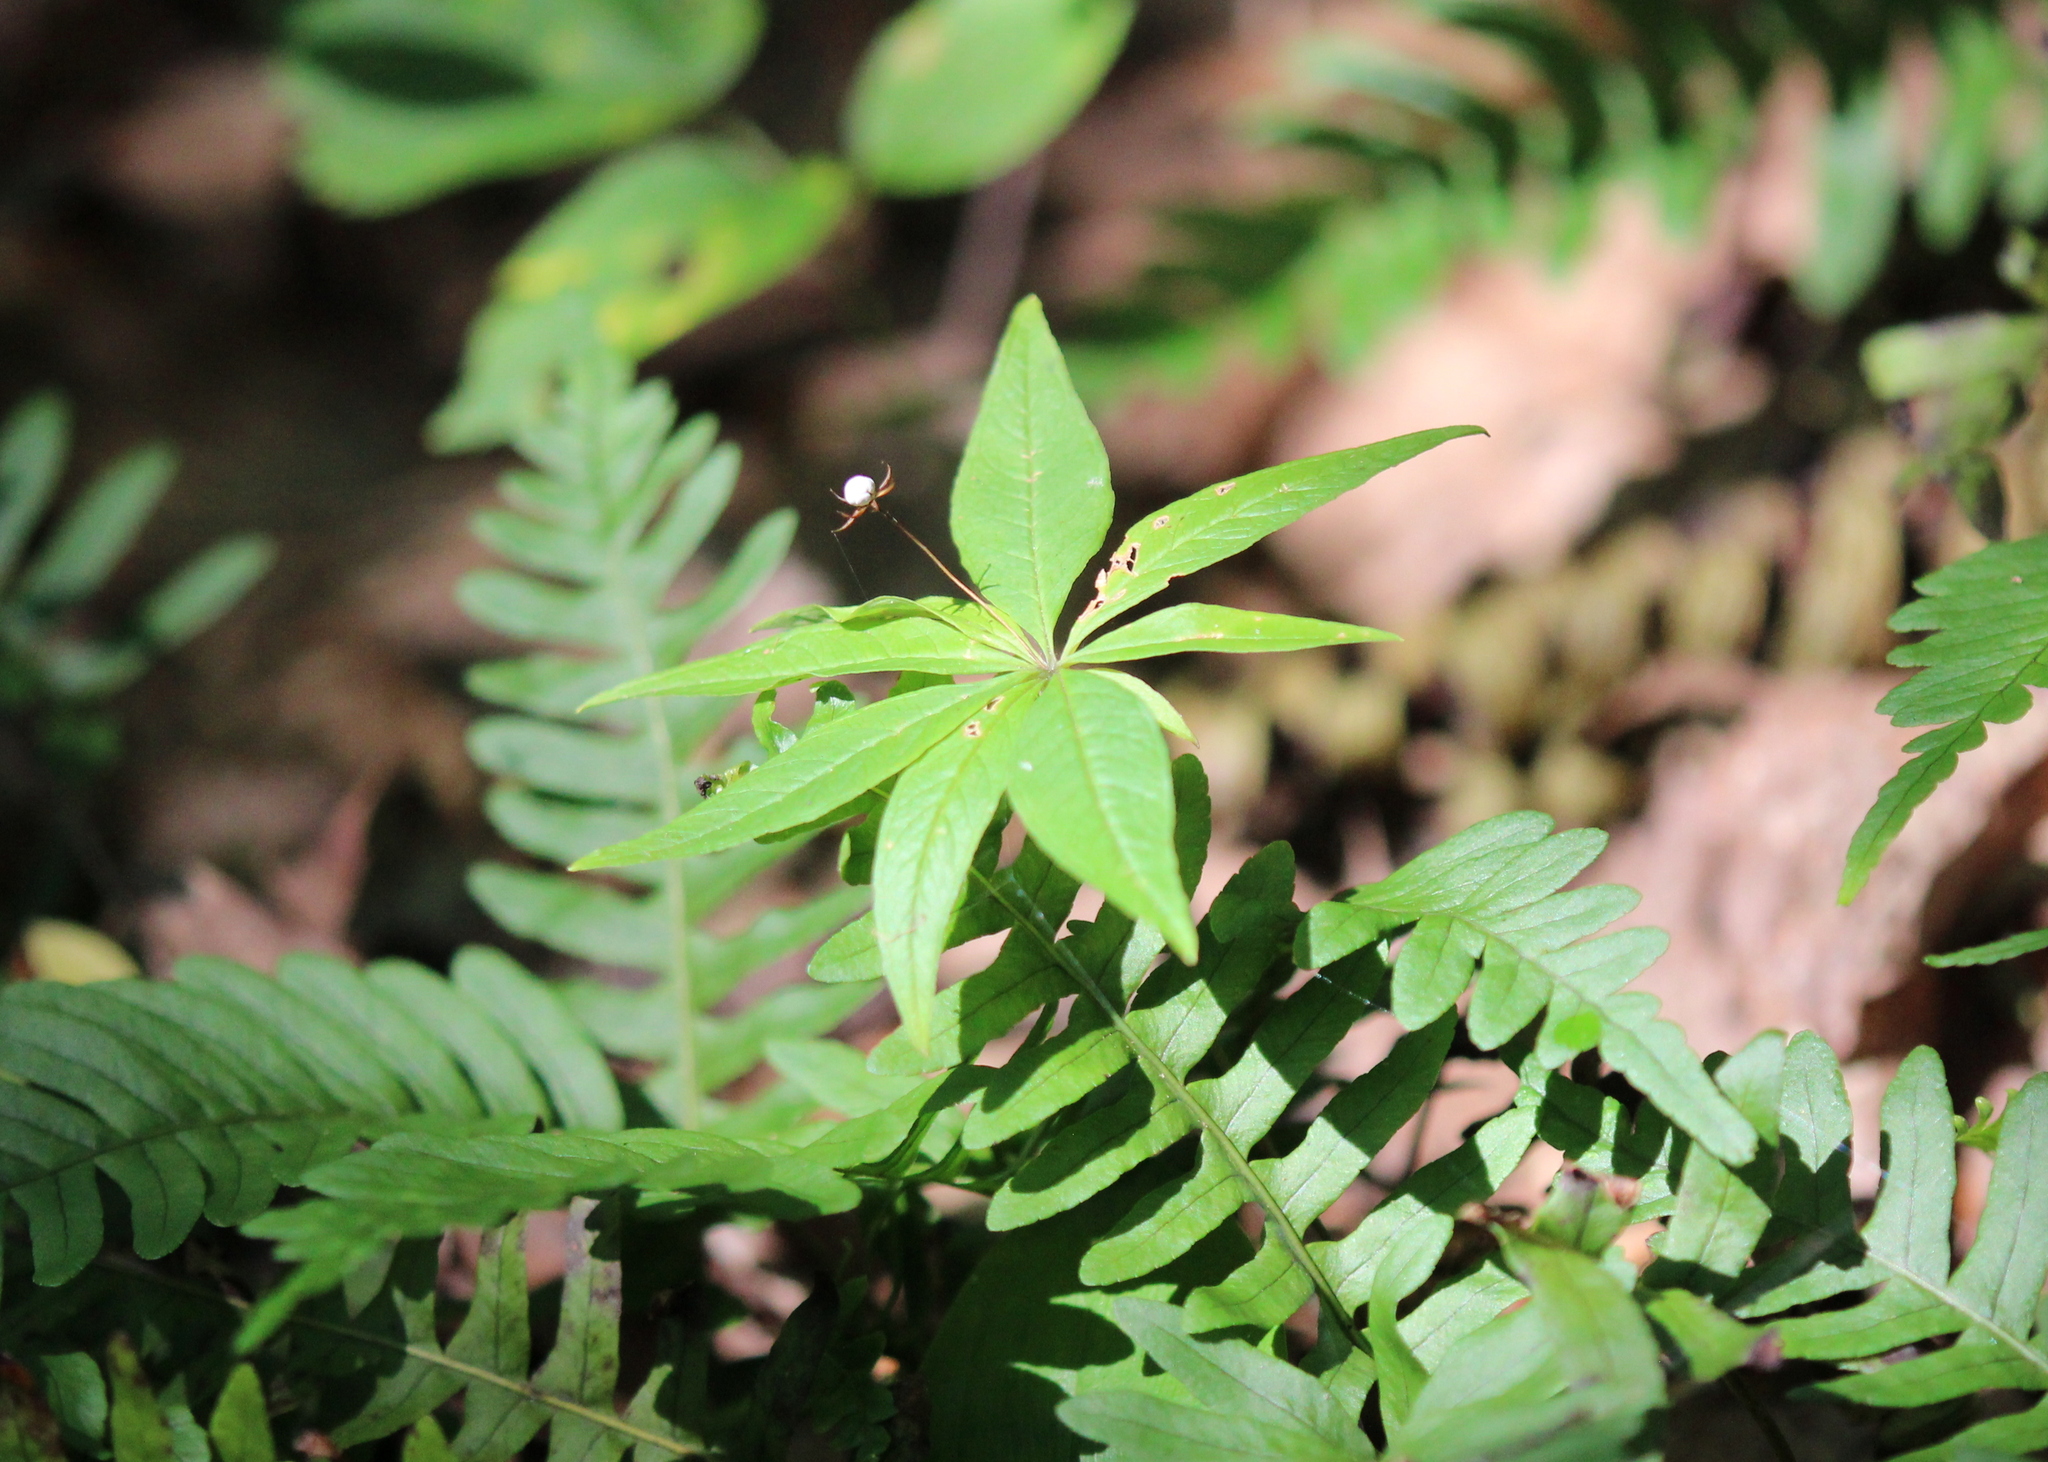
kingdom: Plantae
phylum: Tracheophyta
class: Magnoliopsida
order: Ericales
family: Primulaceae
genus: Lysimachia
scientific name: Lysimachia borealis
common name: American starflower
